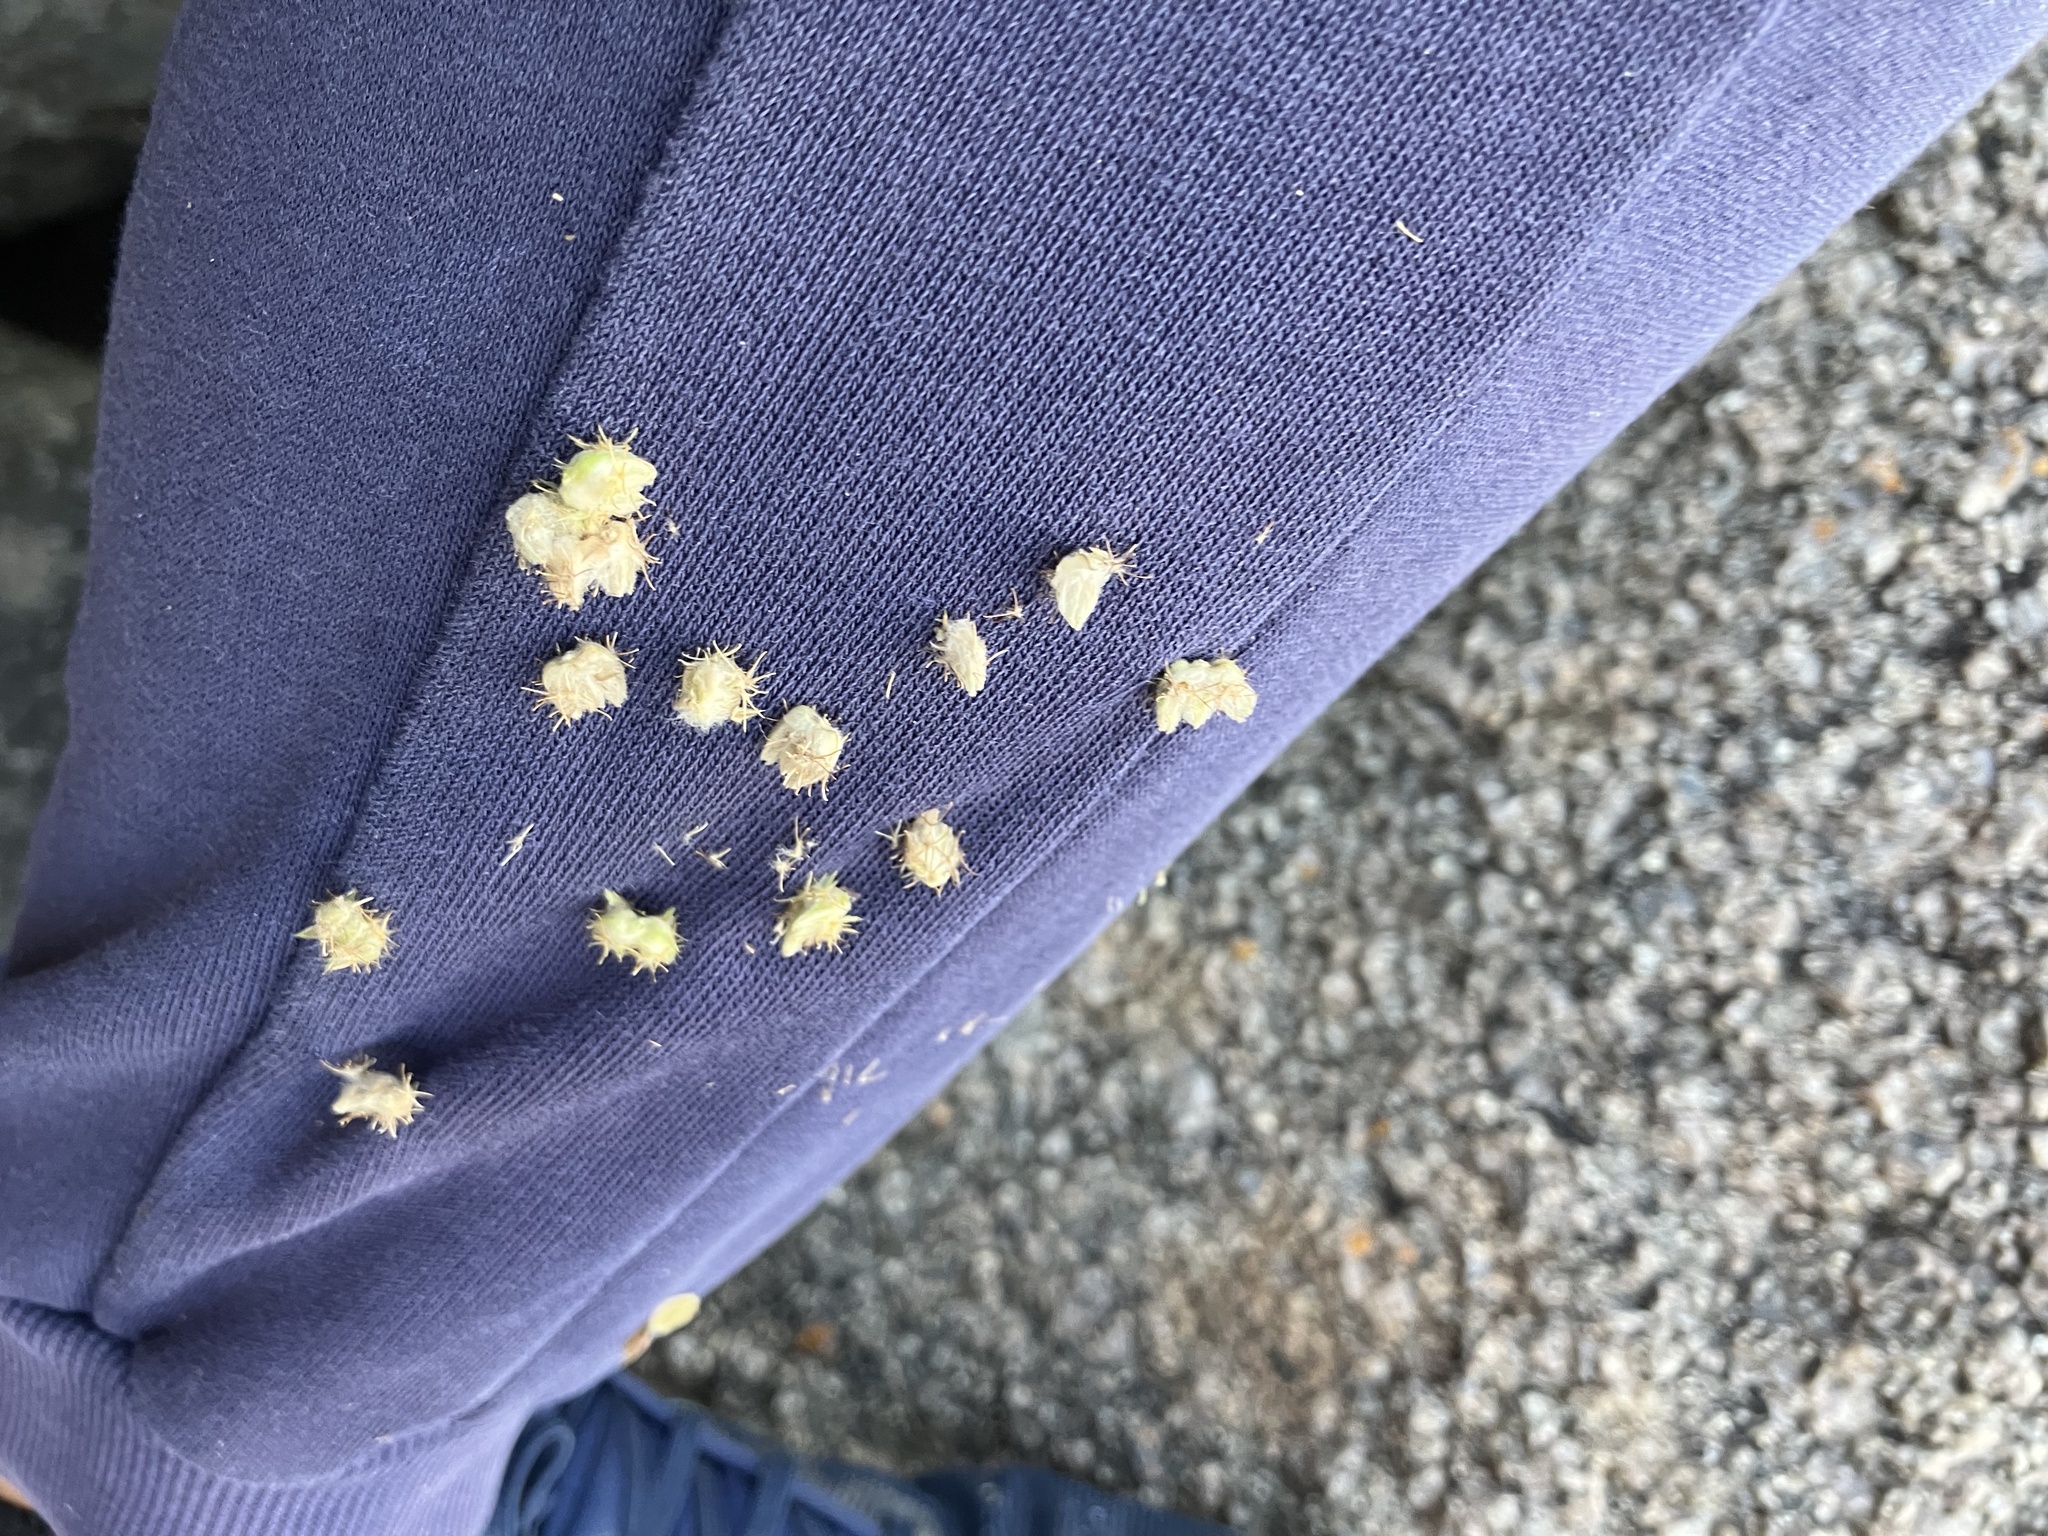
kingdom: Plantae
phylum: Tracheophyta
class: Magnoliopsida
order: Caryophyllales
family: Amaranthaceae
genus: Pupalia
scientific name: Pupalia lappacea
